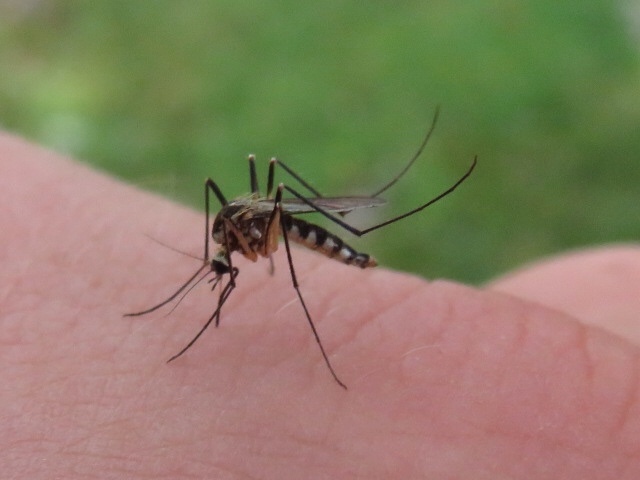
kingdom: Animalia
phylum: Arthropoda
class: Insecta
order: Diptera
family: Culicidae
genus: Aedes
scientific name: Aedes triseriatus
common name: Eastern treehole mosquito
